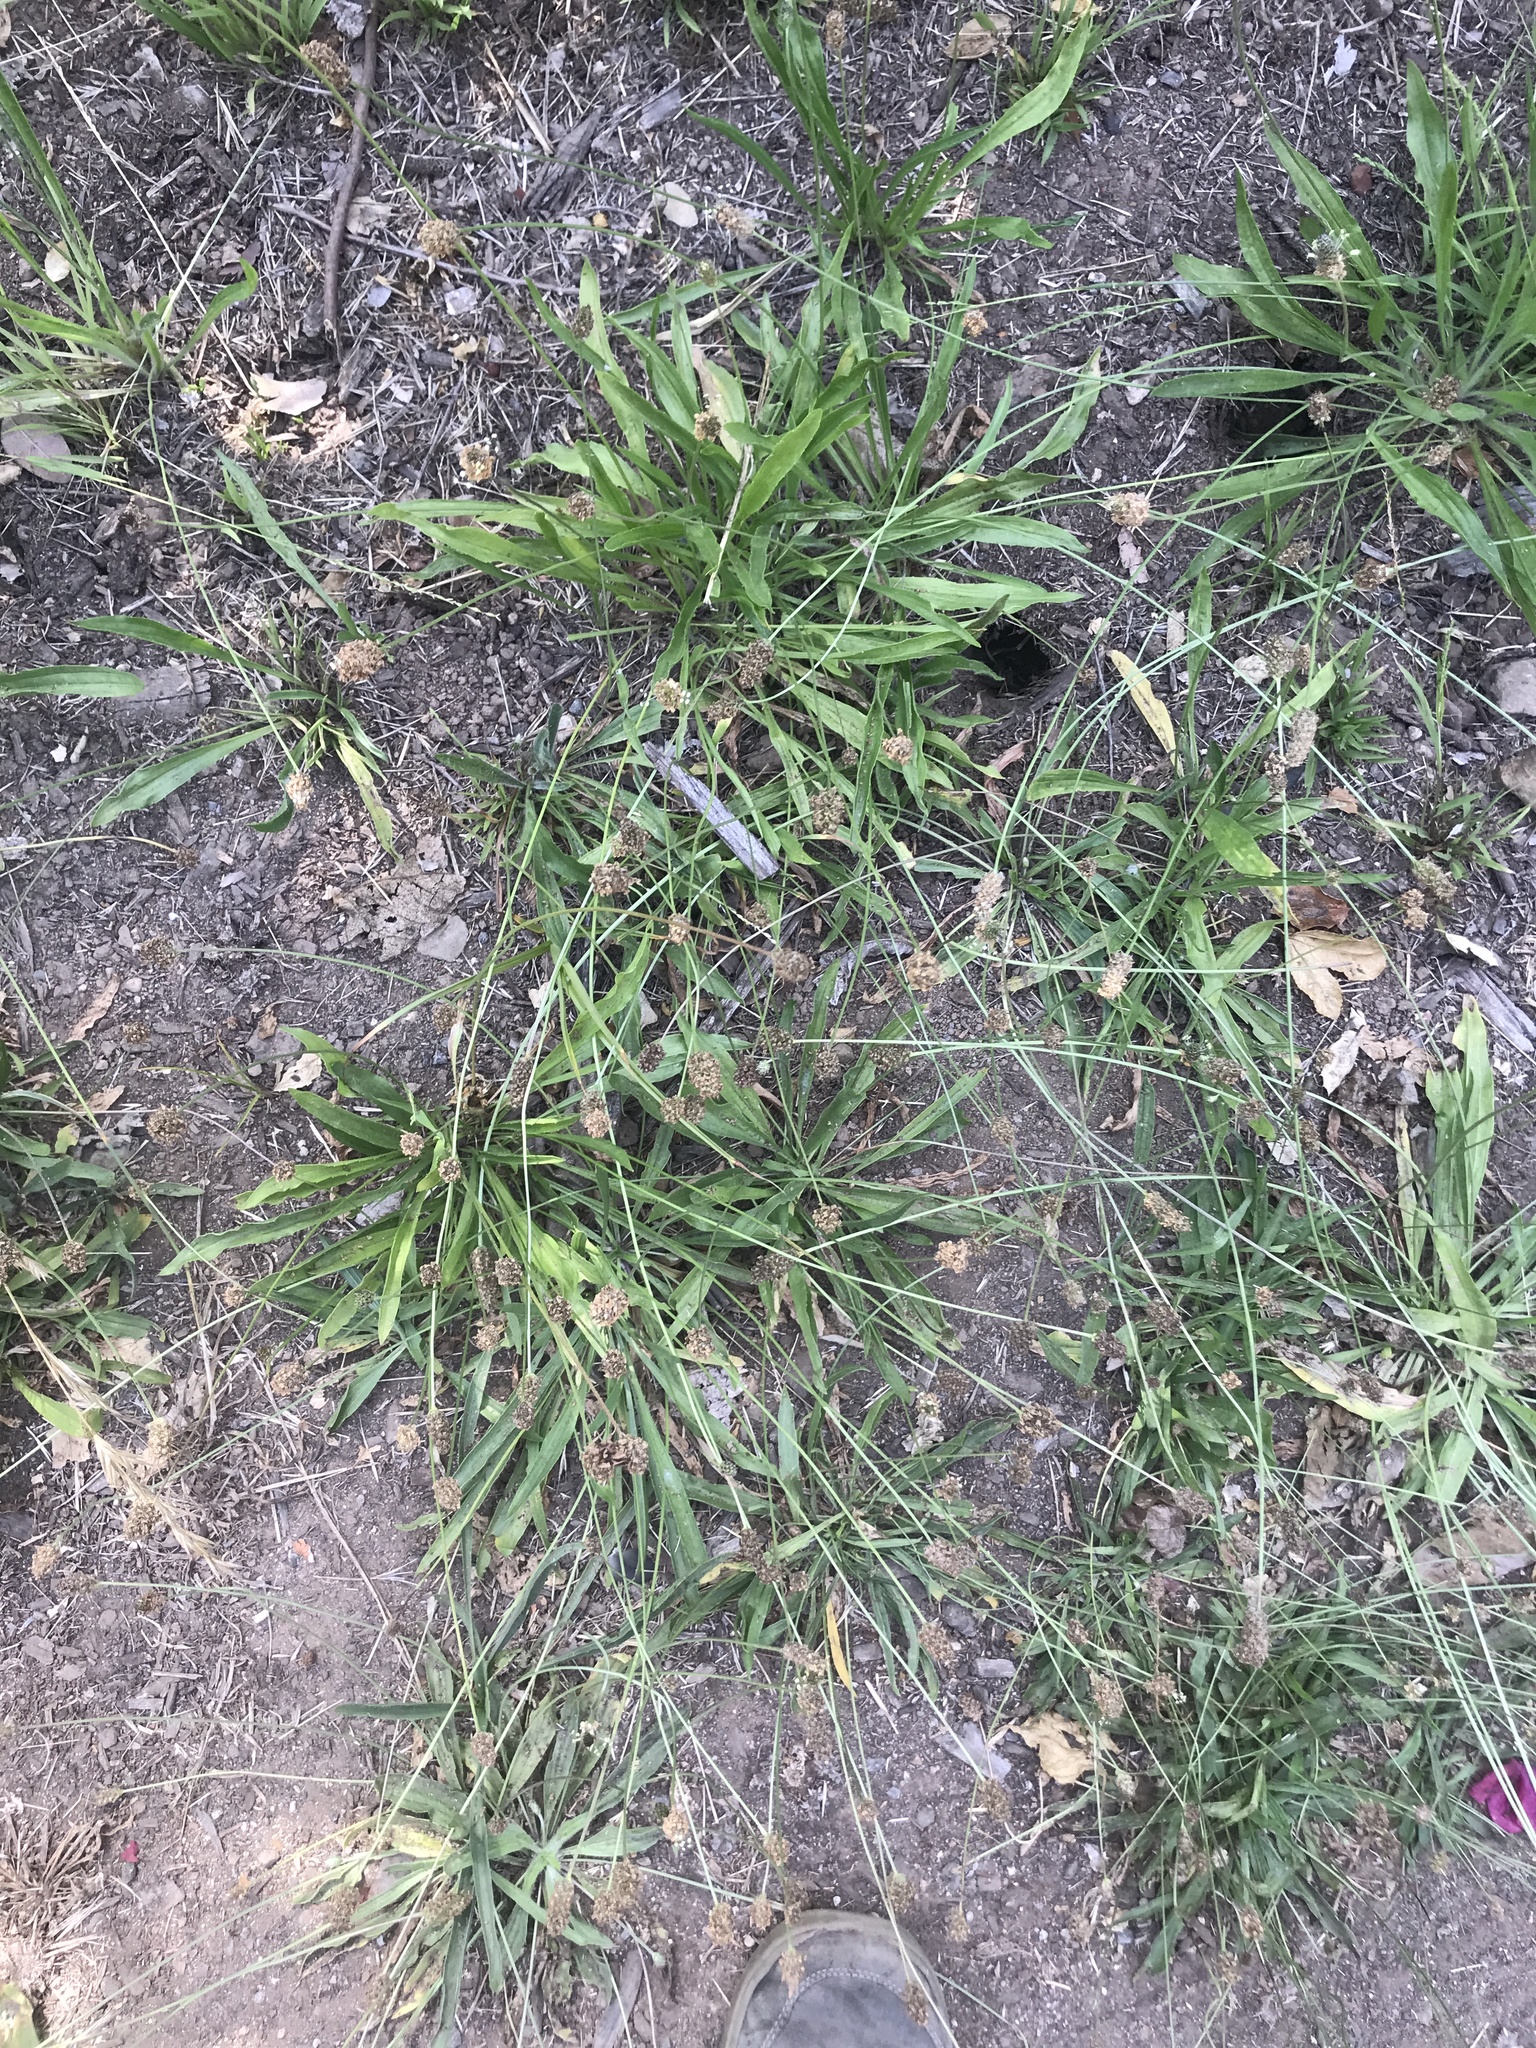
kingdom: Plantae
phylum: Tracheophyta
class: Magnoliopsida
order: Lamiales
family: Plantaginaceae
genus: Plantago
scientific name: Plantago lanceolata
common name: Ribwort plantain
